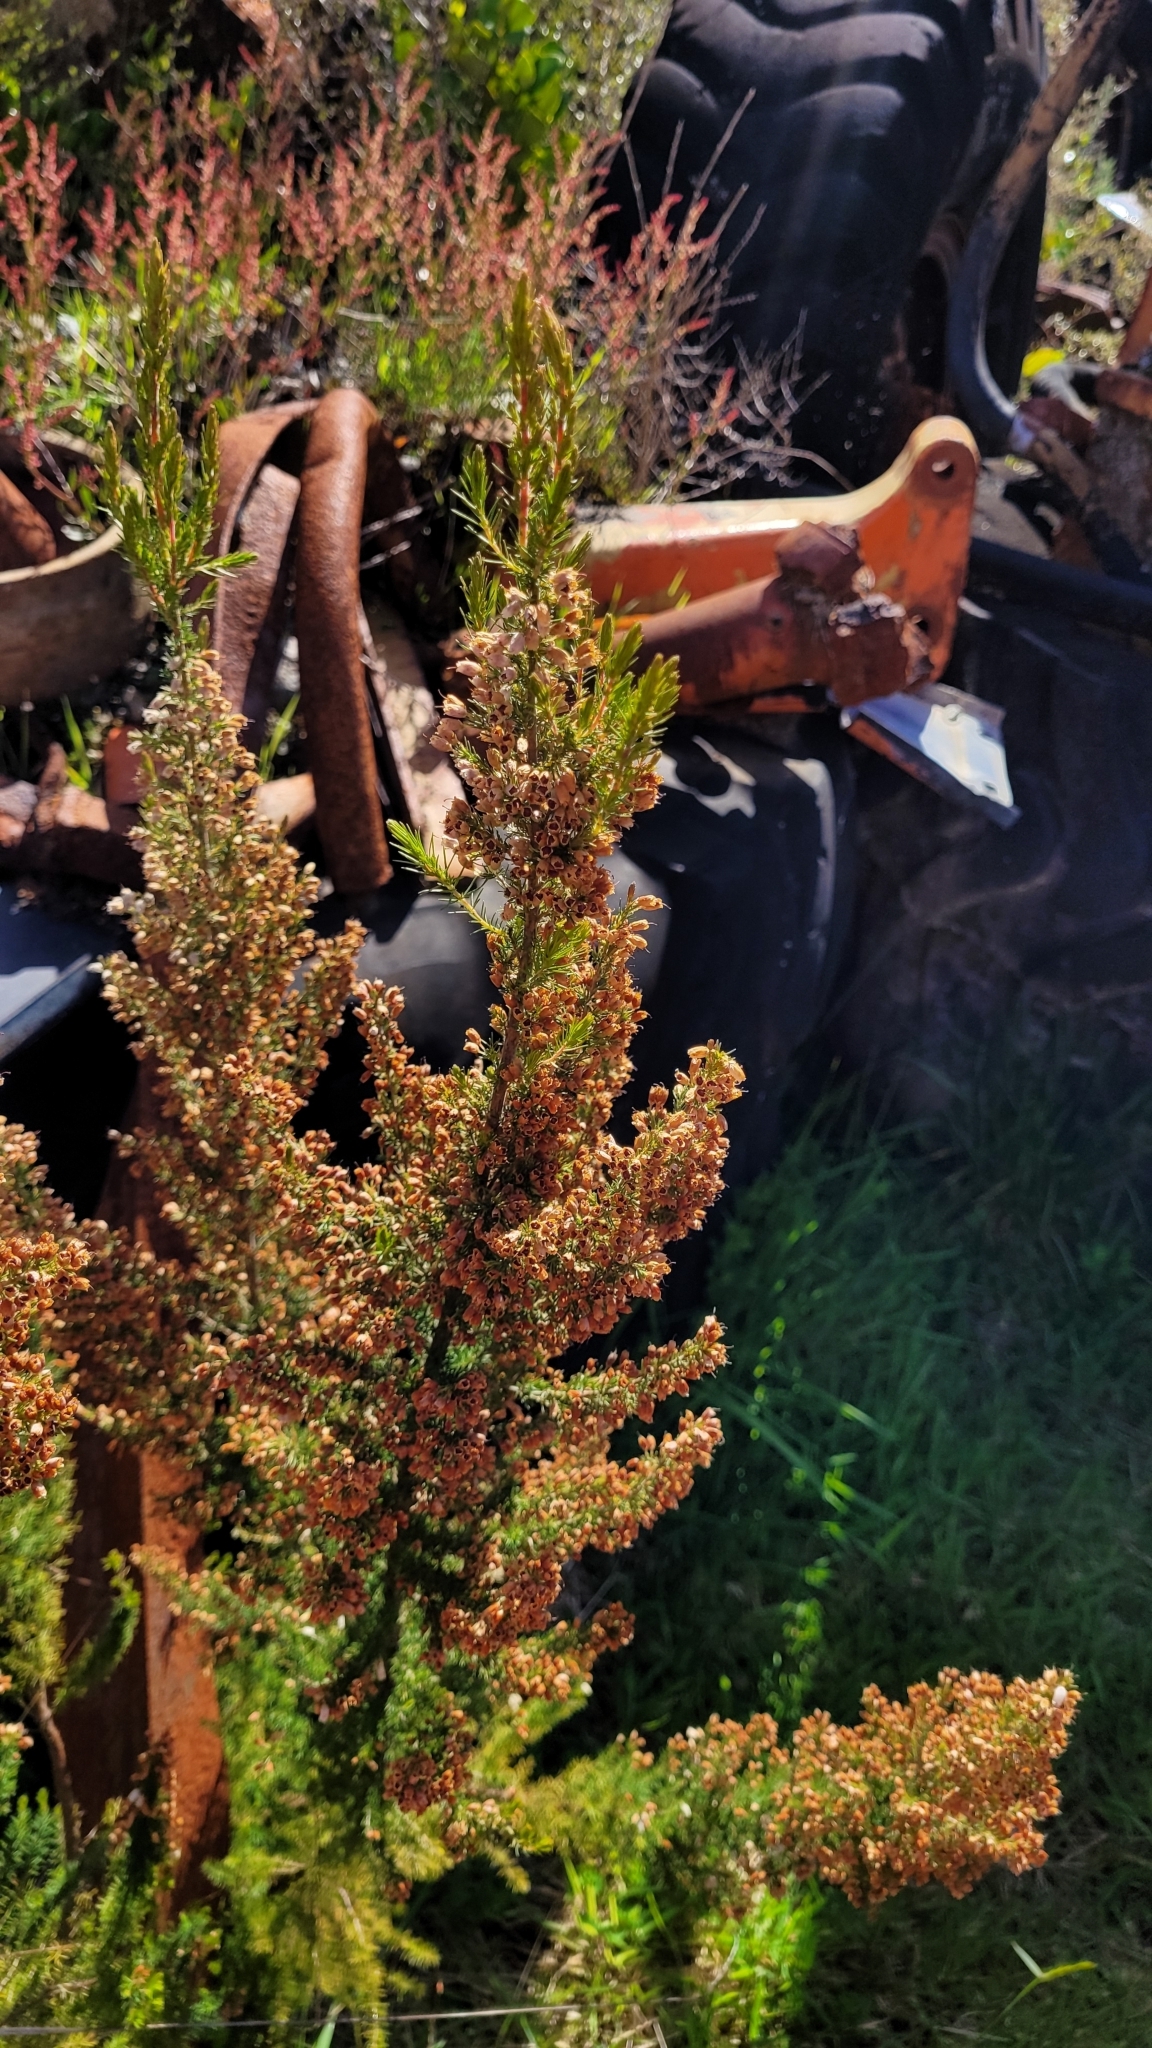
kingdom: Plantae
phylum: Tracheophyta
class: Magnoliopsida
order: Ericales
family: Ericaceae
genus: Erica
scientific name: Erica lusitanica
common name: Spanish heath
